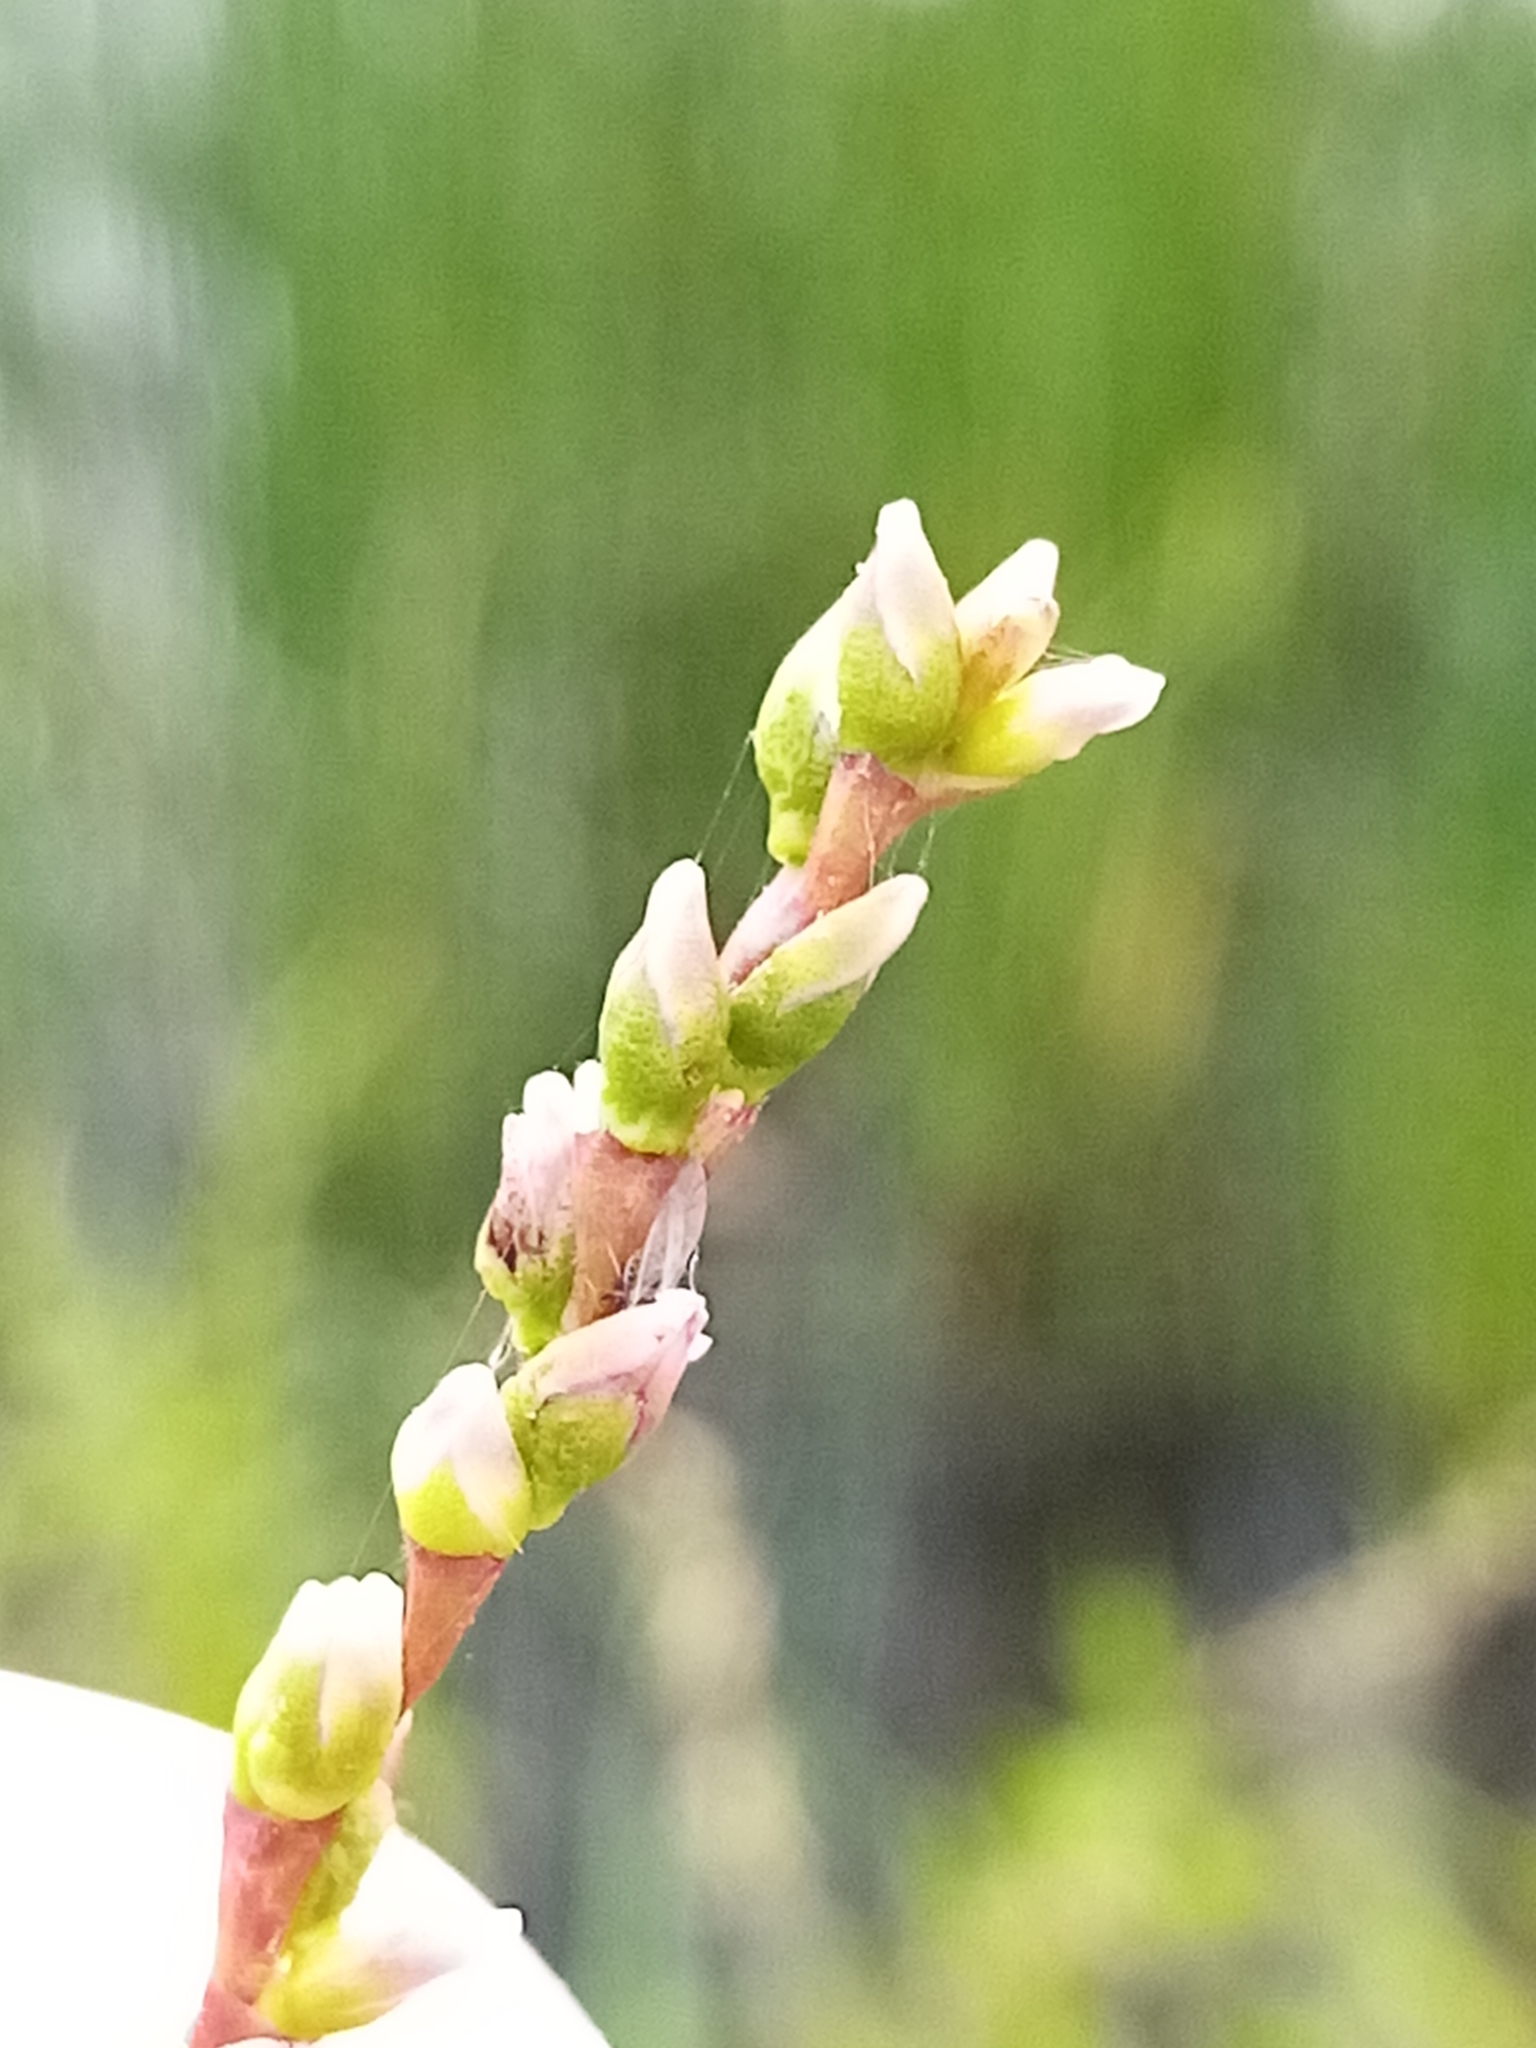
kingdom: Plantae
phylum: Tracheophyta
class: Magnoliopsida
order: Caryophyllales
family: Polygonaceae
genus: Persicaria
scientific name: Persicaria hydropiper
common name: Water-pepper
